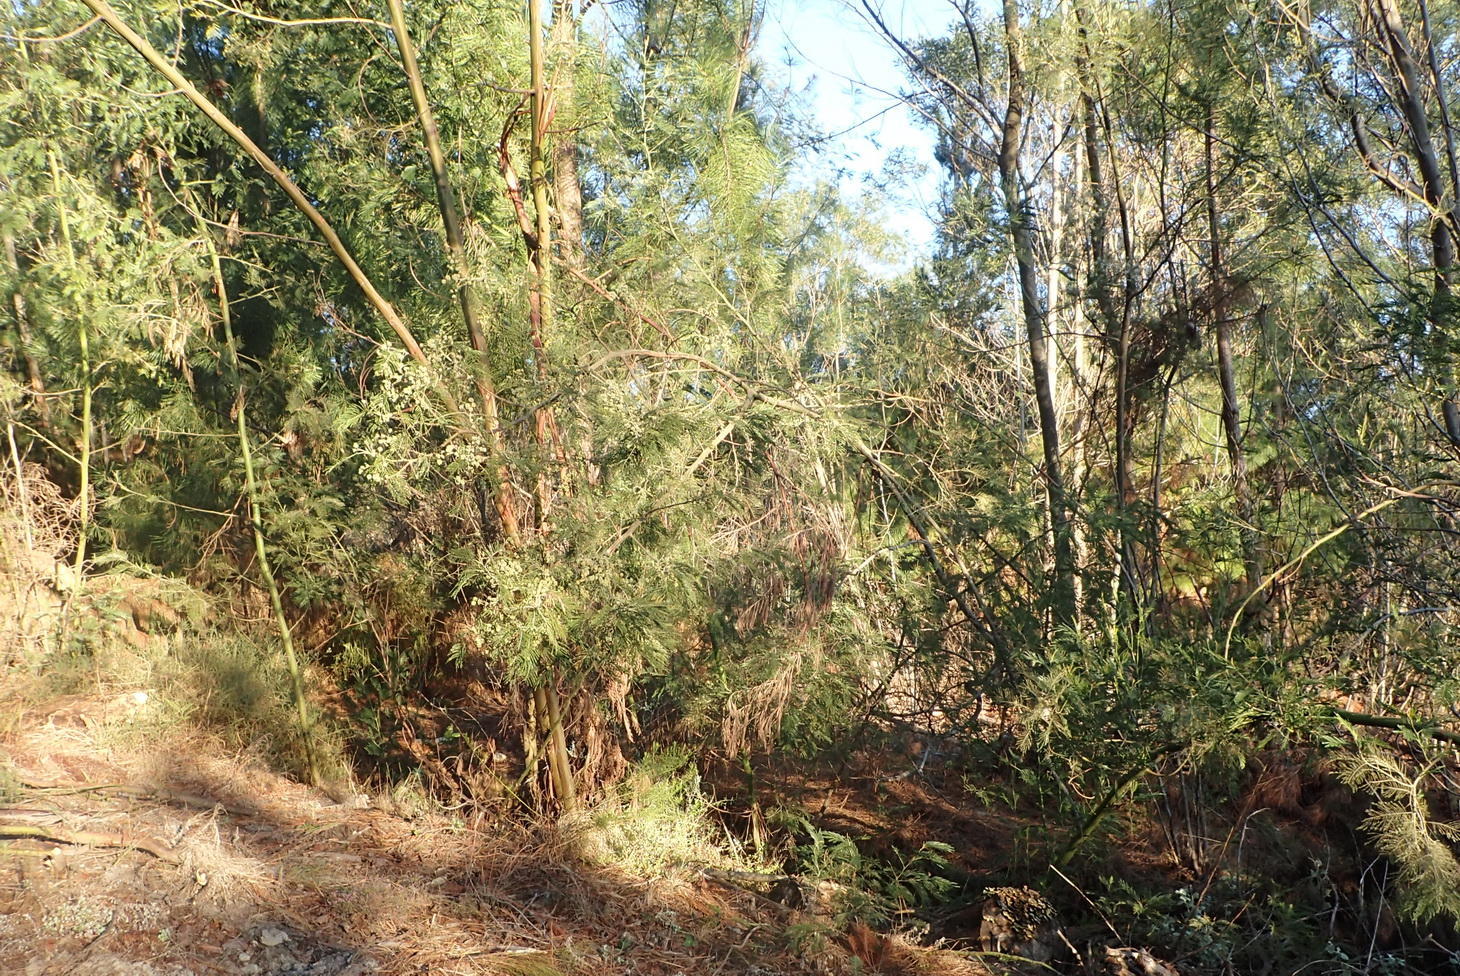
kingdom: Plantae
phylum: Tracheophyta
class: Magnoliopsida
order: Fabales
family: Fabaceae
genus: Acacia
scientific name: Acacia mearnsii
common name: Black wattle
